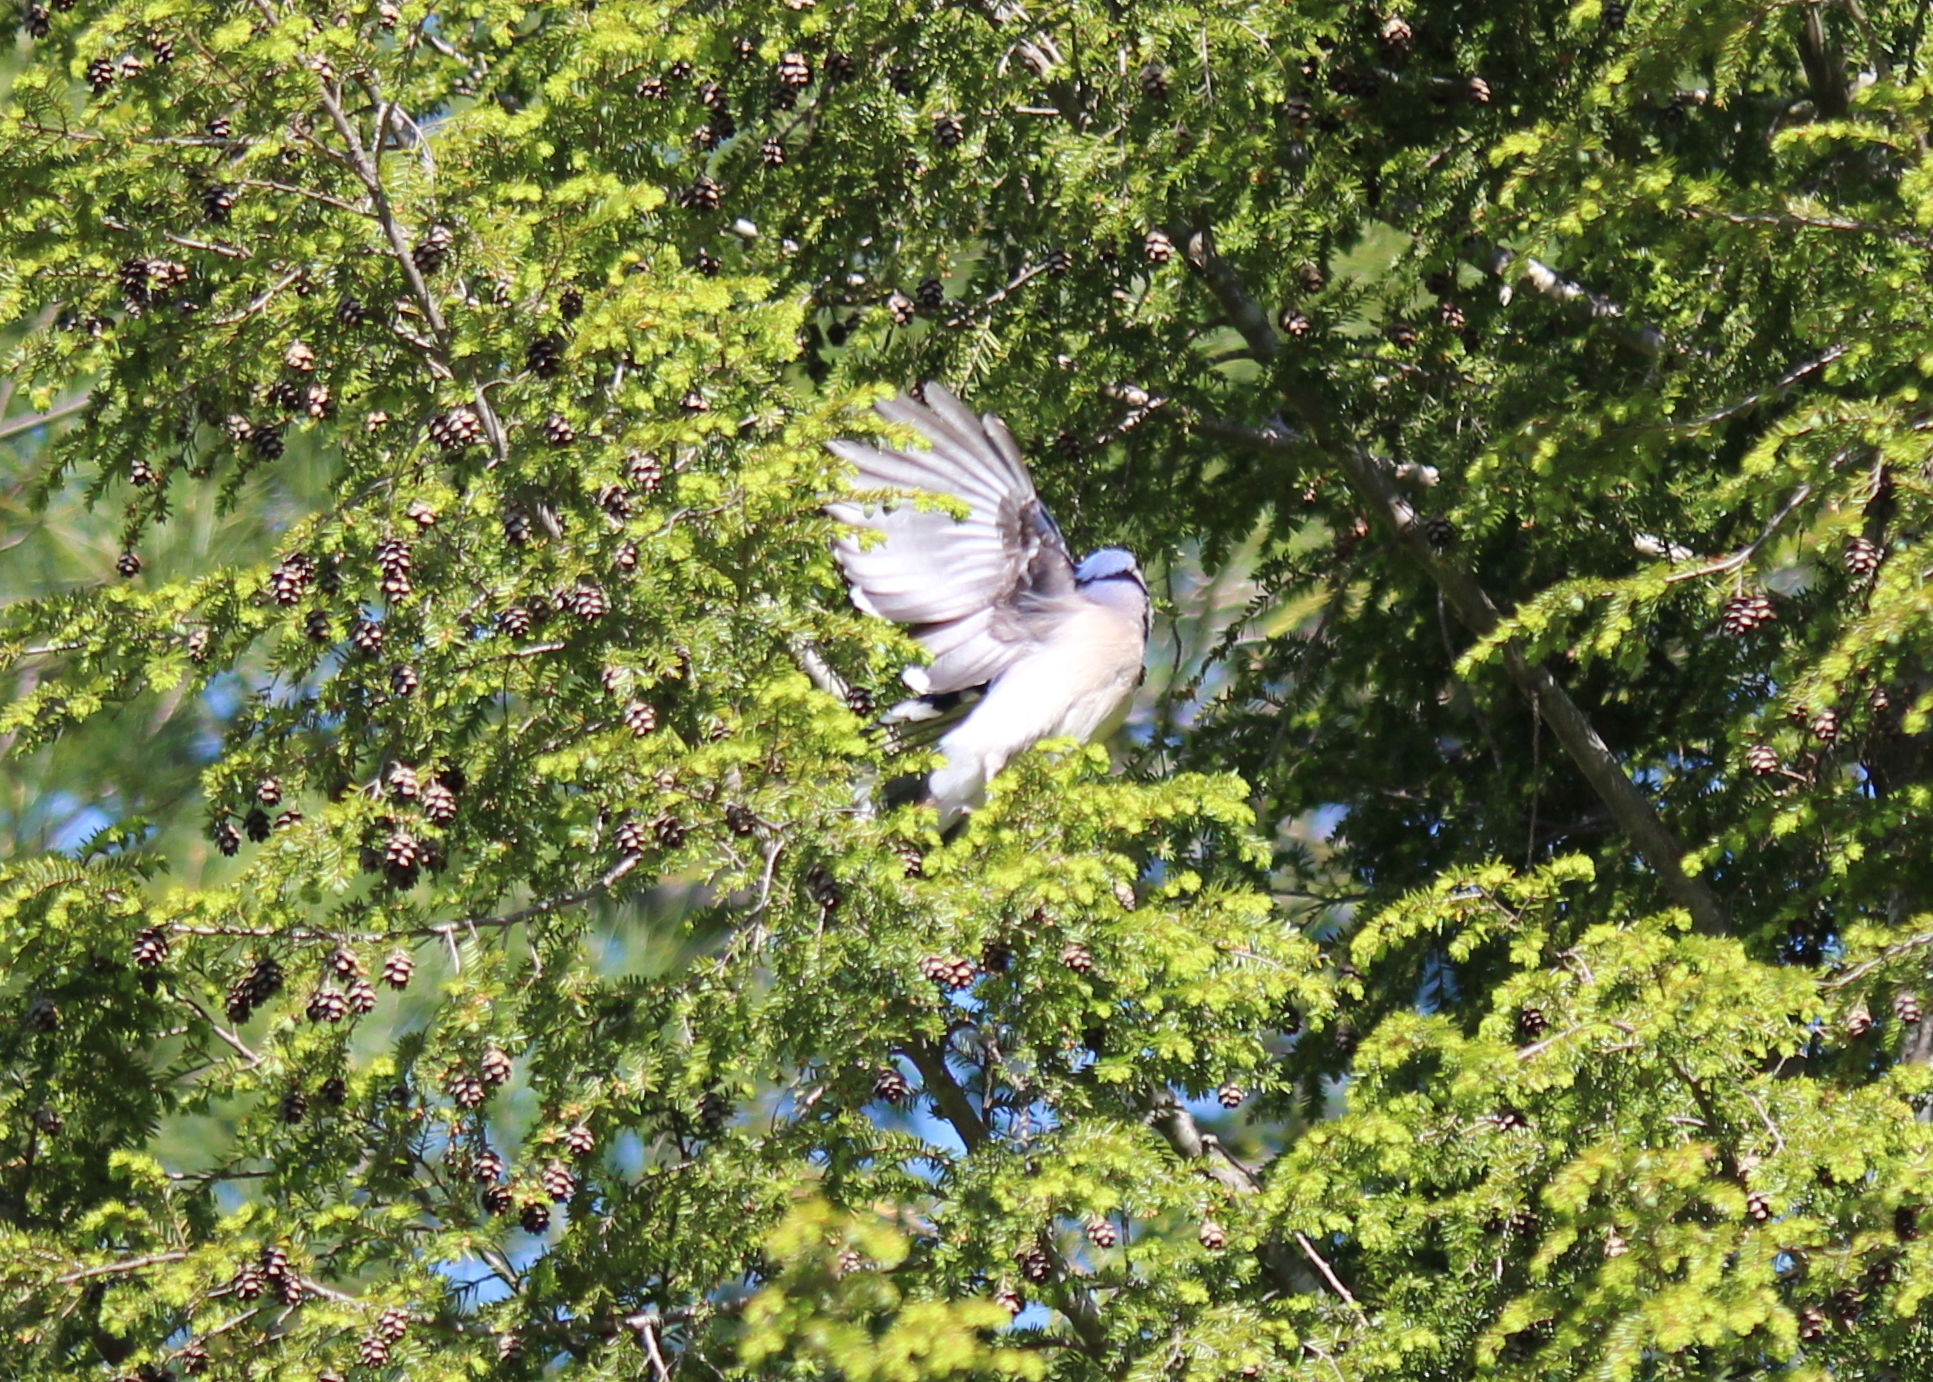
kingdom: Animalia
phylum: Chordata
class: Aves
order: Passeriformes
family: Corvidae
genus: Cyanocitta
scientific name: Cyanocitta cristata
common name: Blue jay
